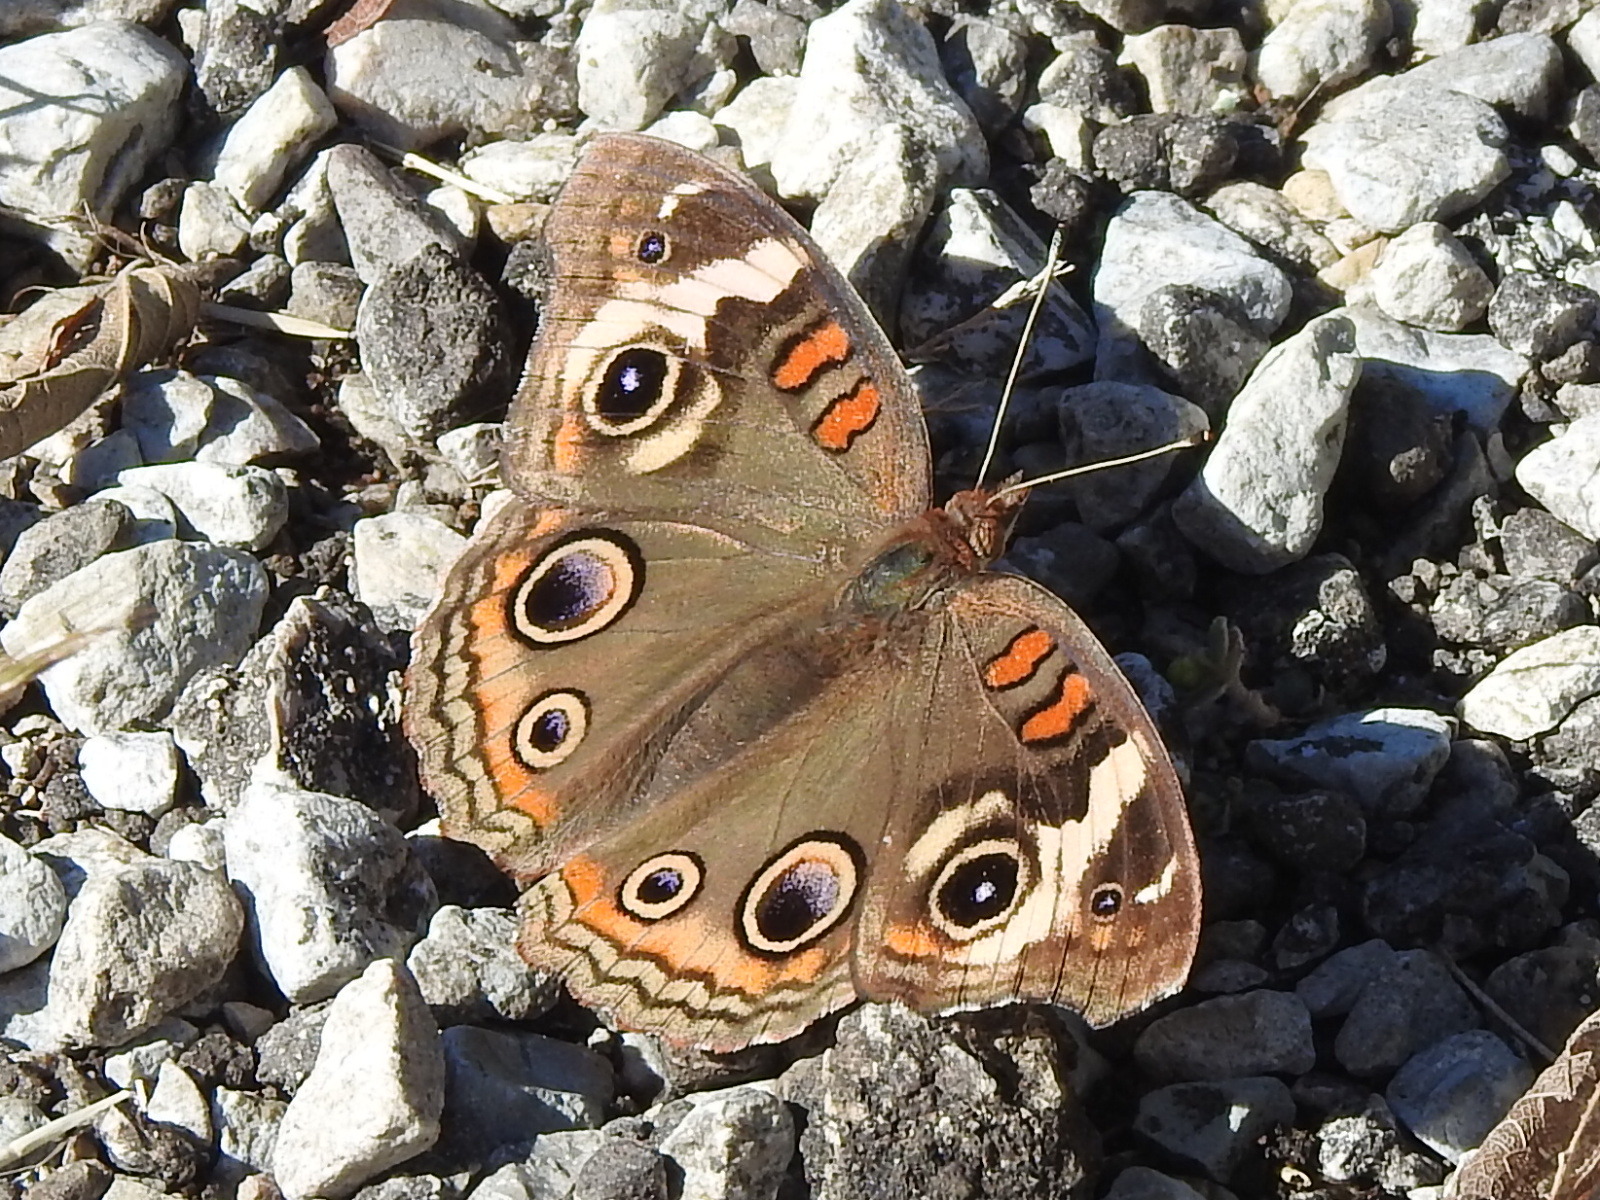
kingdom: Animalia
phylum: Arthropoda
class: Insecta
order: Lepidoptera
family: Nymphalidae
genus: Junonia
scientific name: Junonia coenia
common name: Common buckeye
